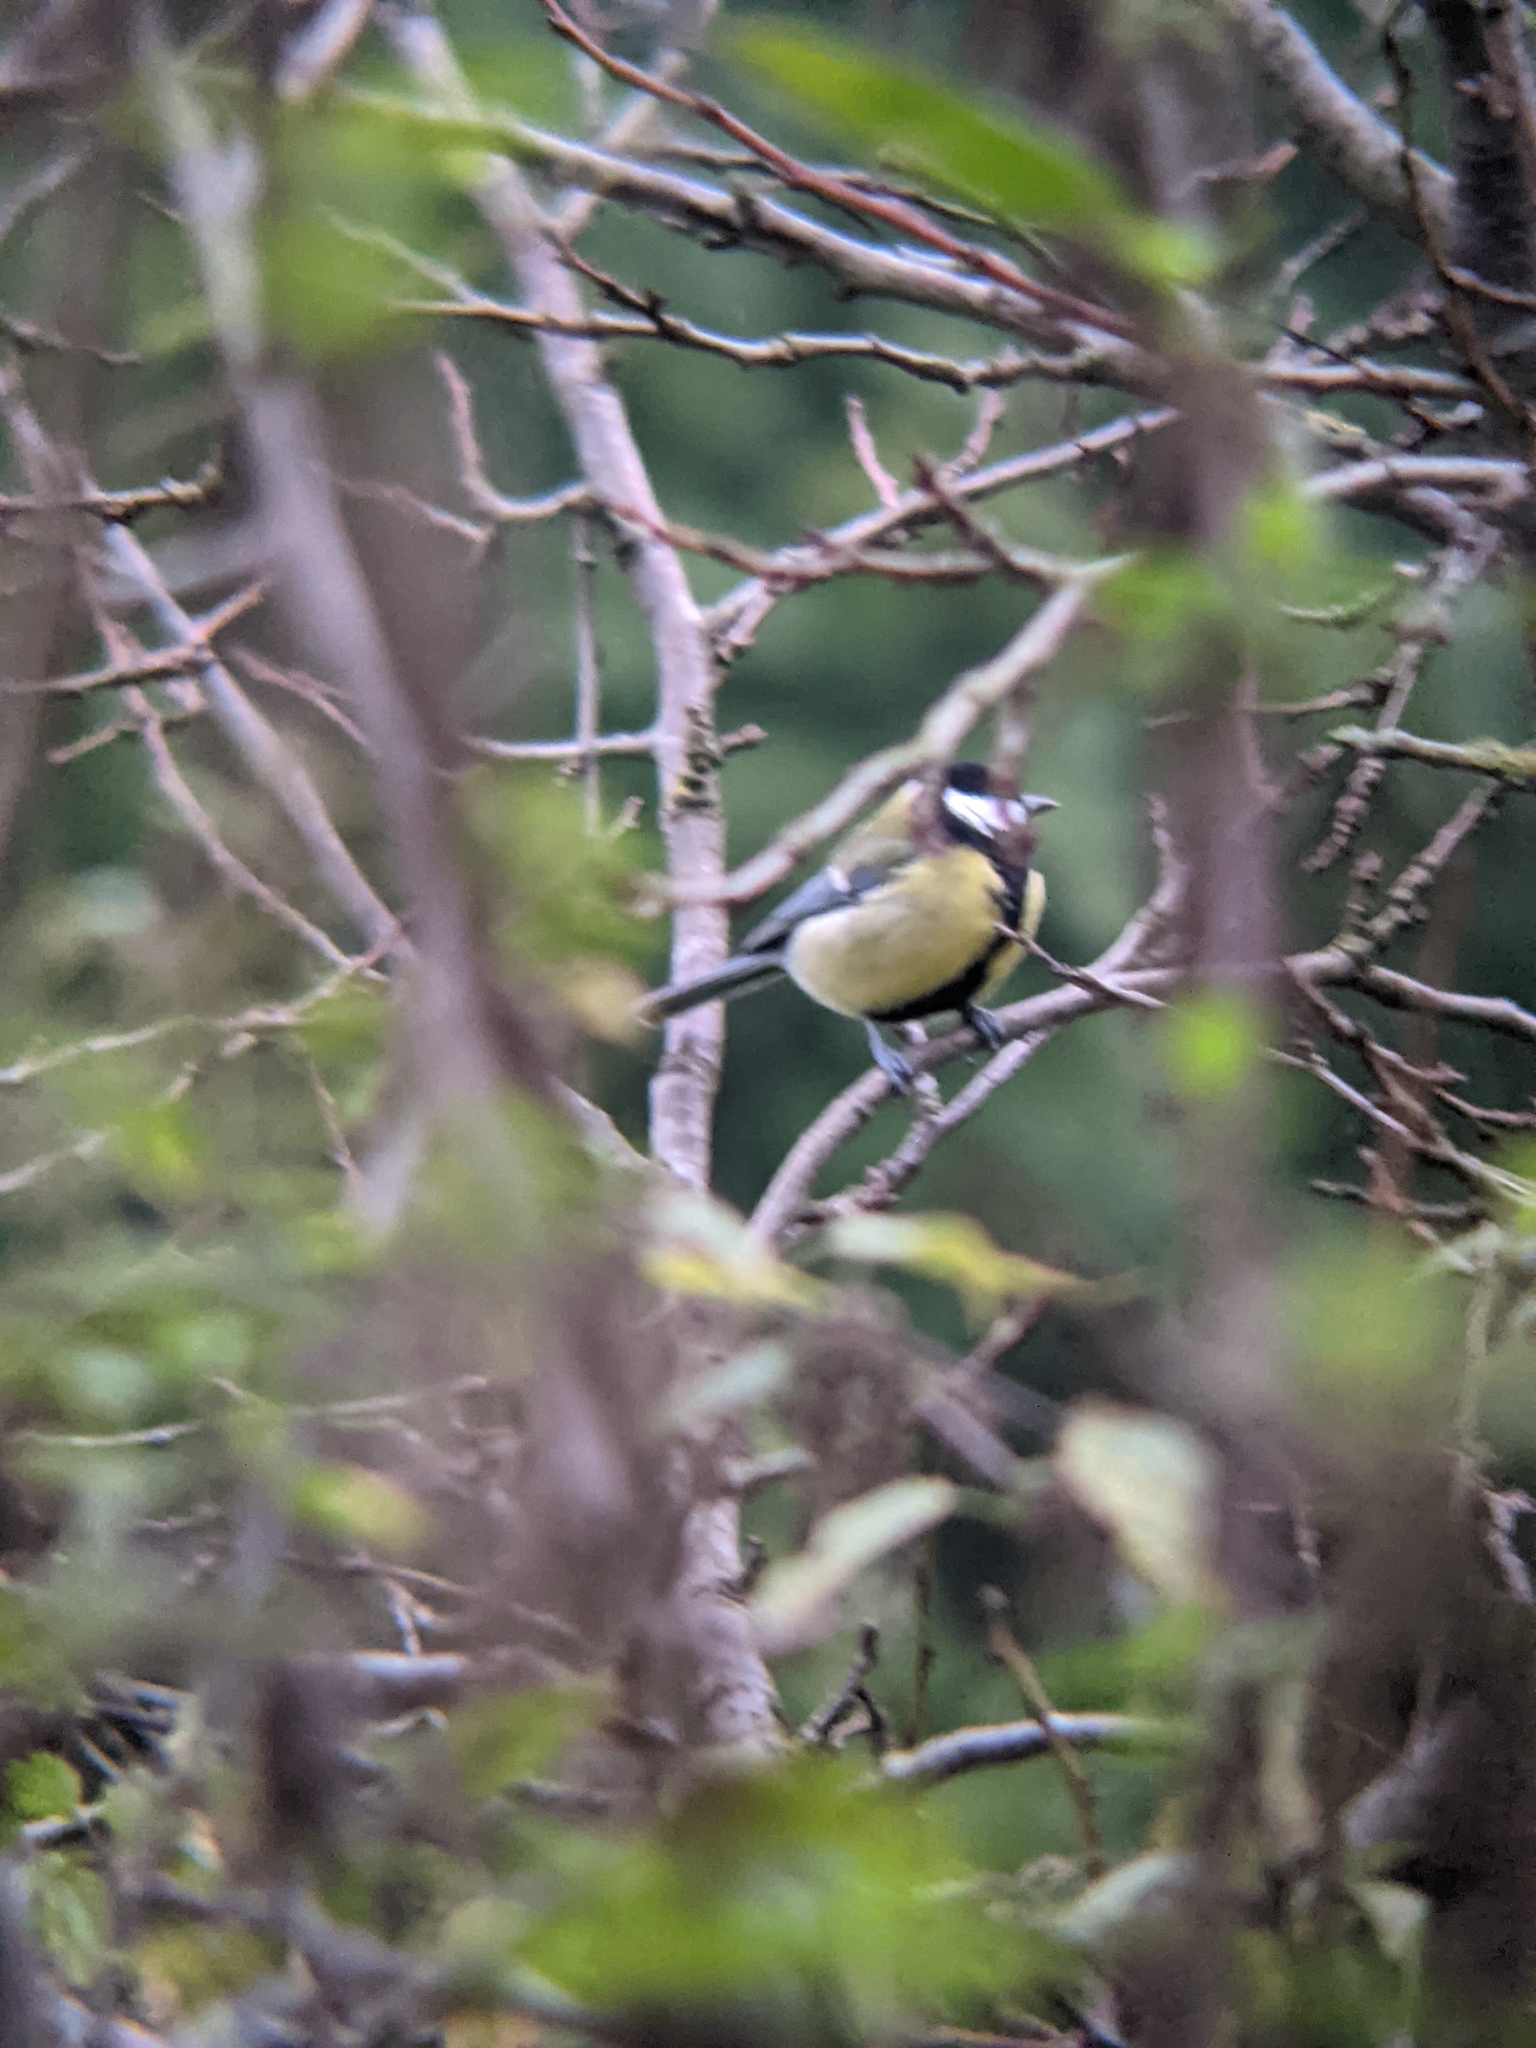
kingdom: Animalia
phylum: Chordata
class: Aves
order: Passeriformes
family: Paridae
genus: Parus
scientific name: Parus major
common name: Great tit
